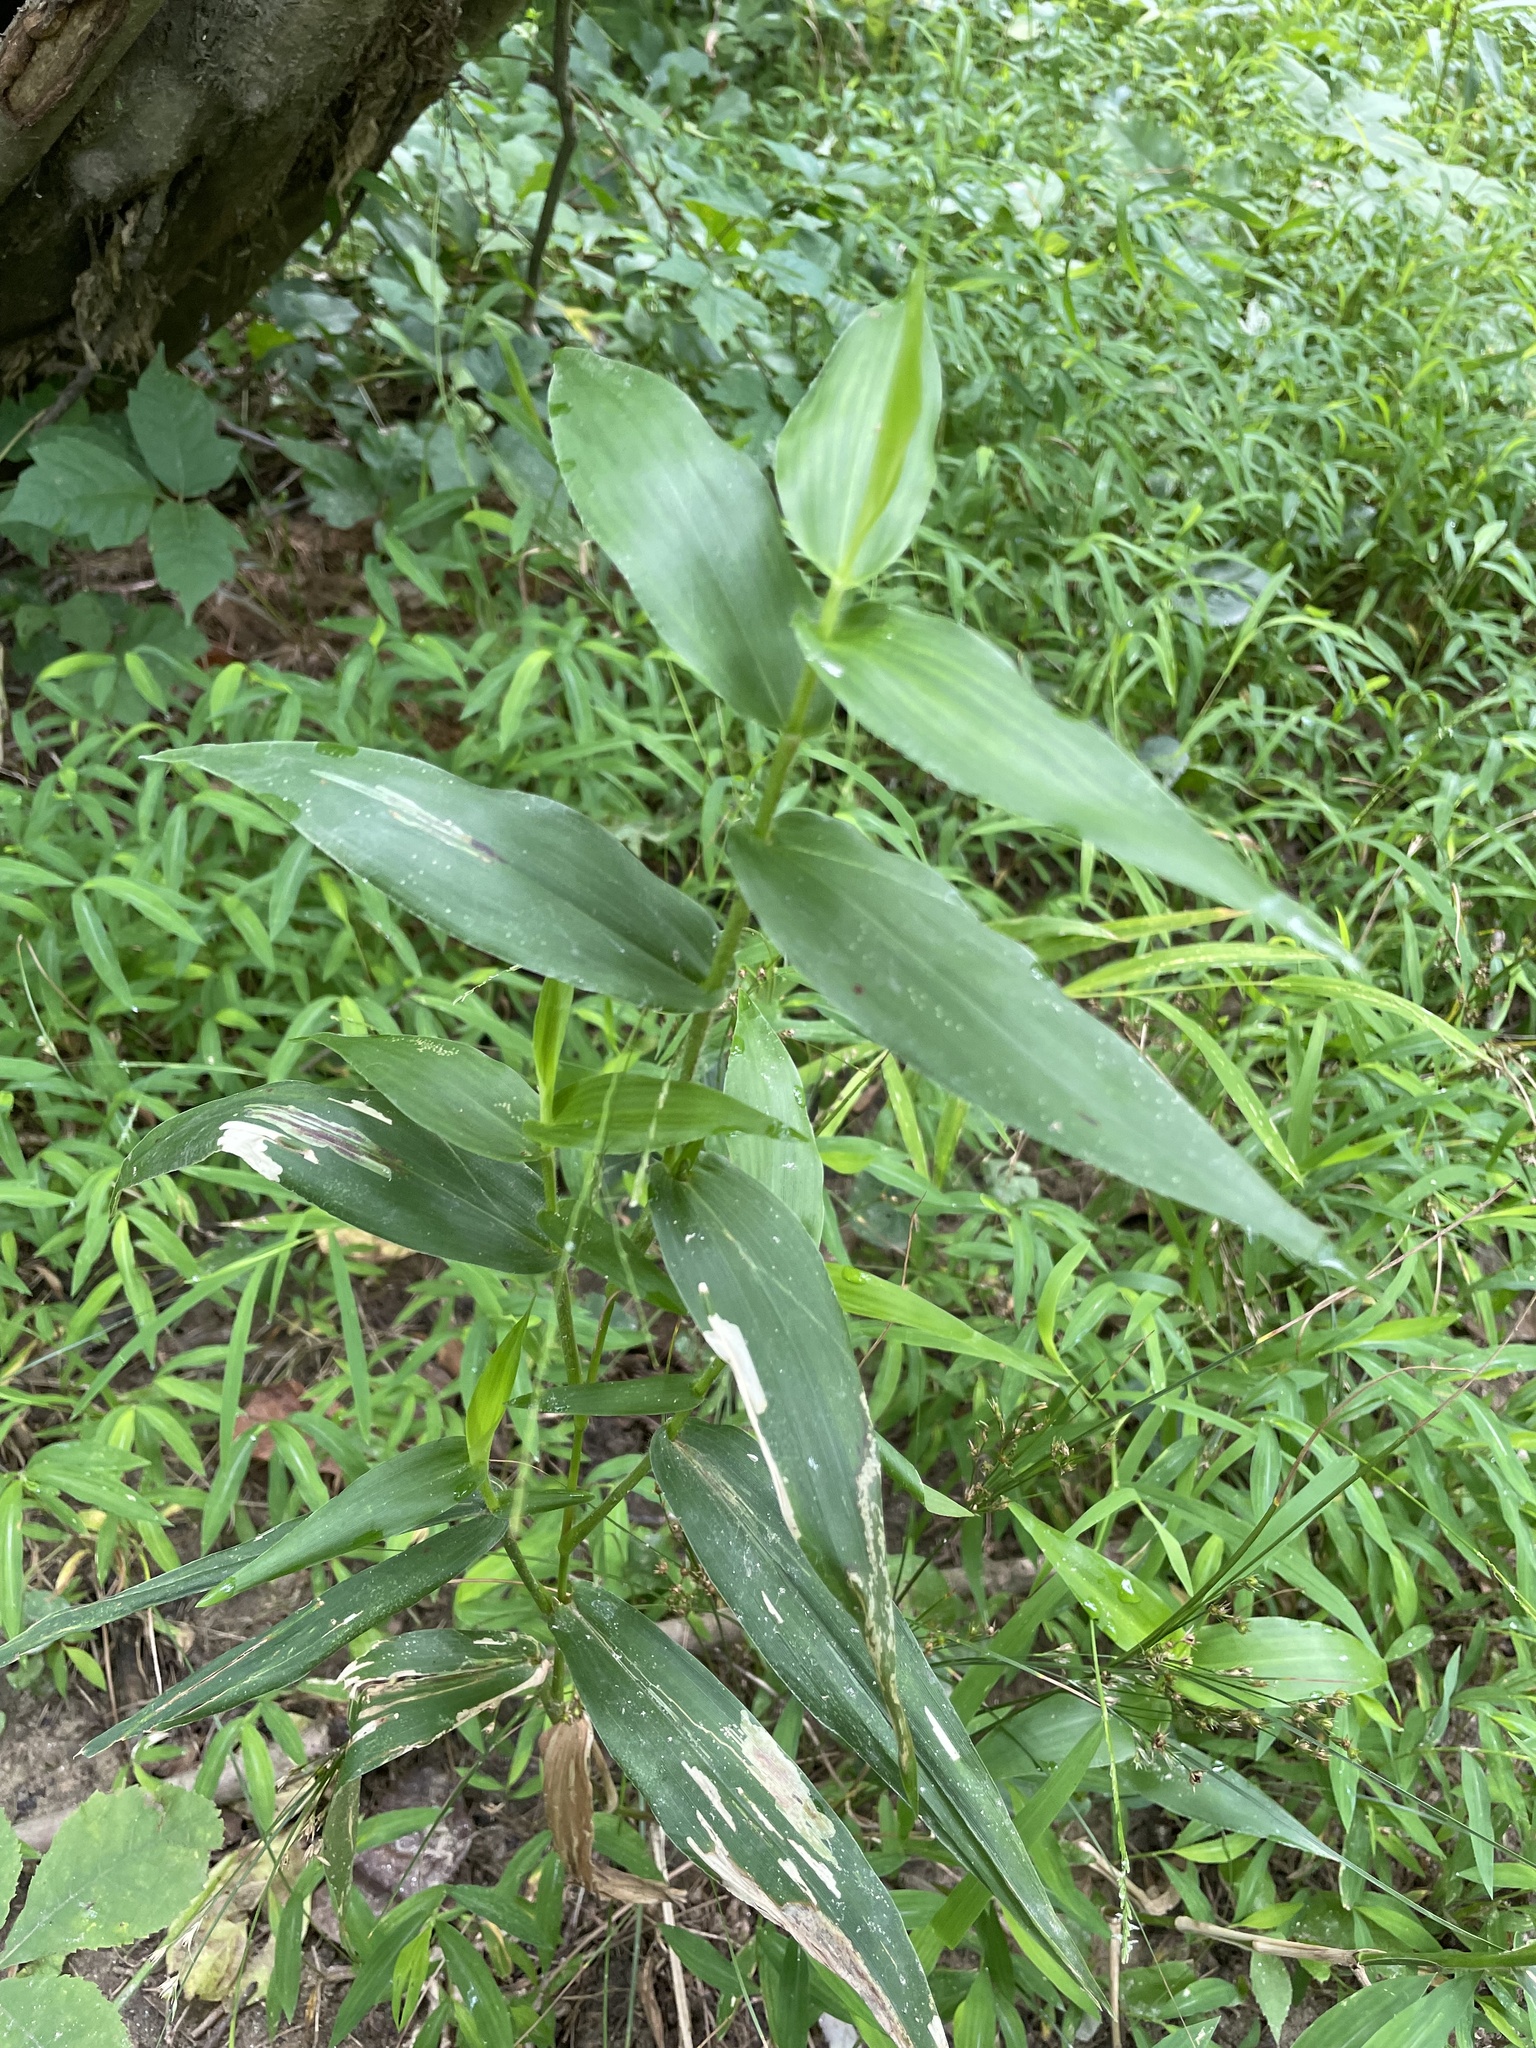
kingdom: Plantae
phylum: Tracheophyta
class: Liliopsida
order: Poales
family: Poaceae
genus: Dichanthelium
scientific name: Dichanthelium clandestinum
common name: Deer-tongue grass
